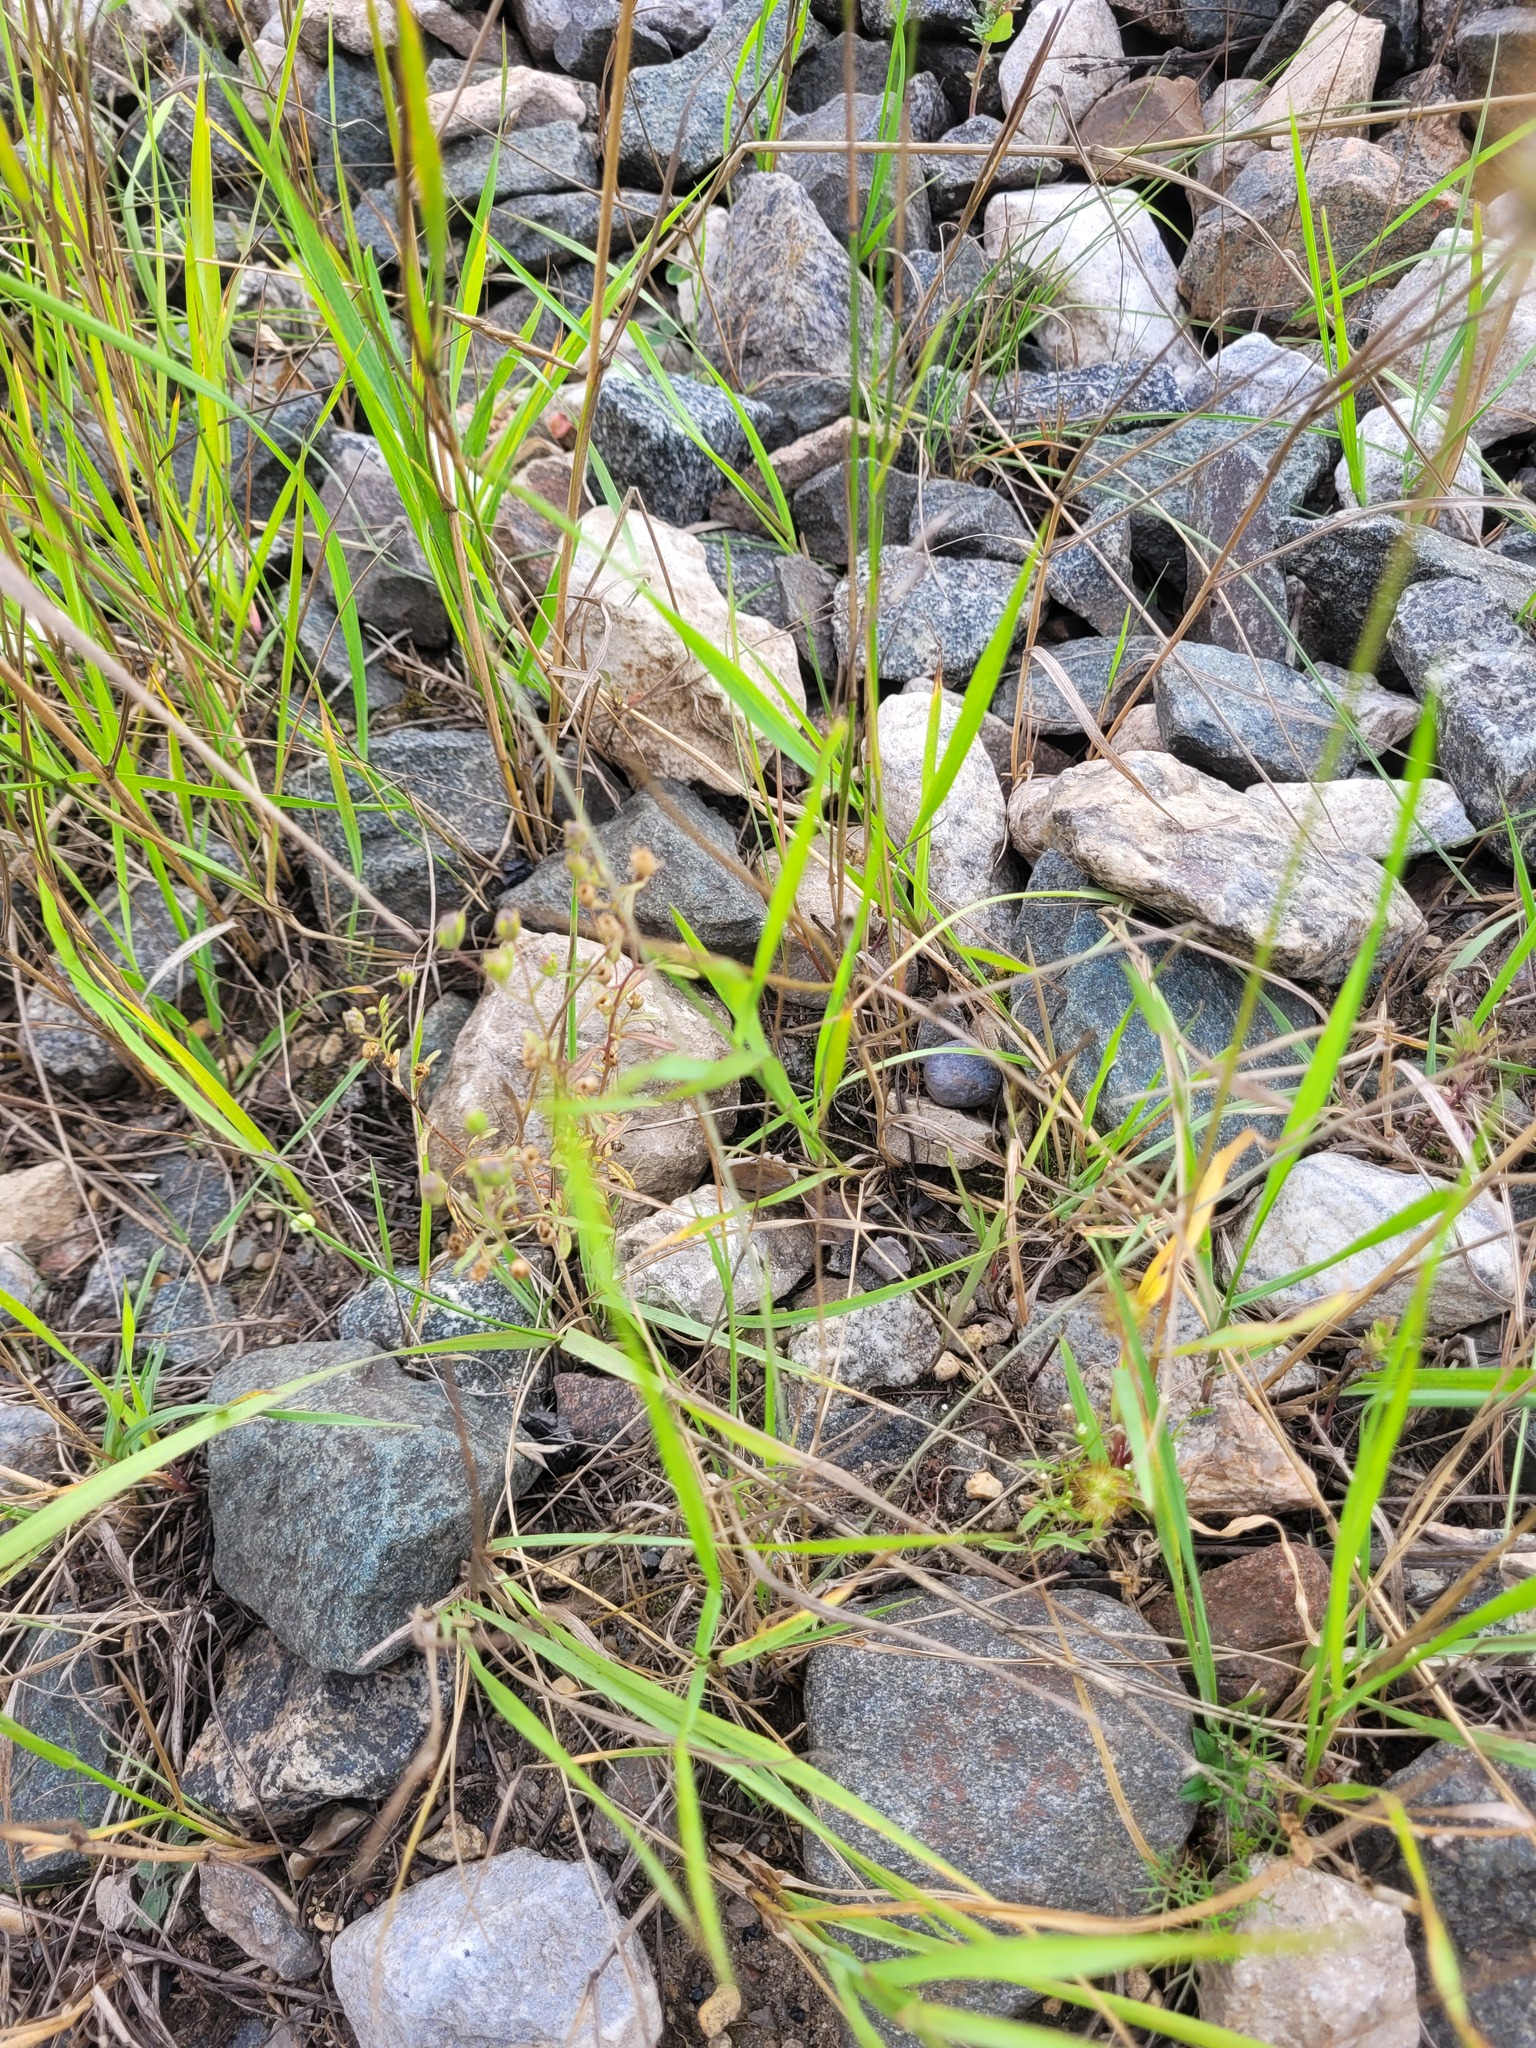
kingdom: Plantae
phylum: Tracheophyta
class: Magnoliopsida
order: Lamiales
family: Plantaginaceae
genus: Chaenorhinum
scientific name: Chaenorhinum minus
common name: Dwarf snapdragon
